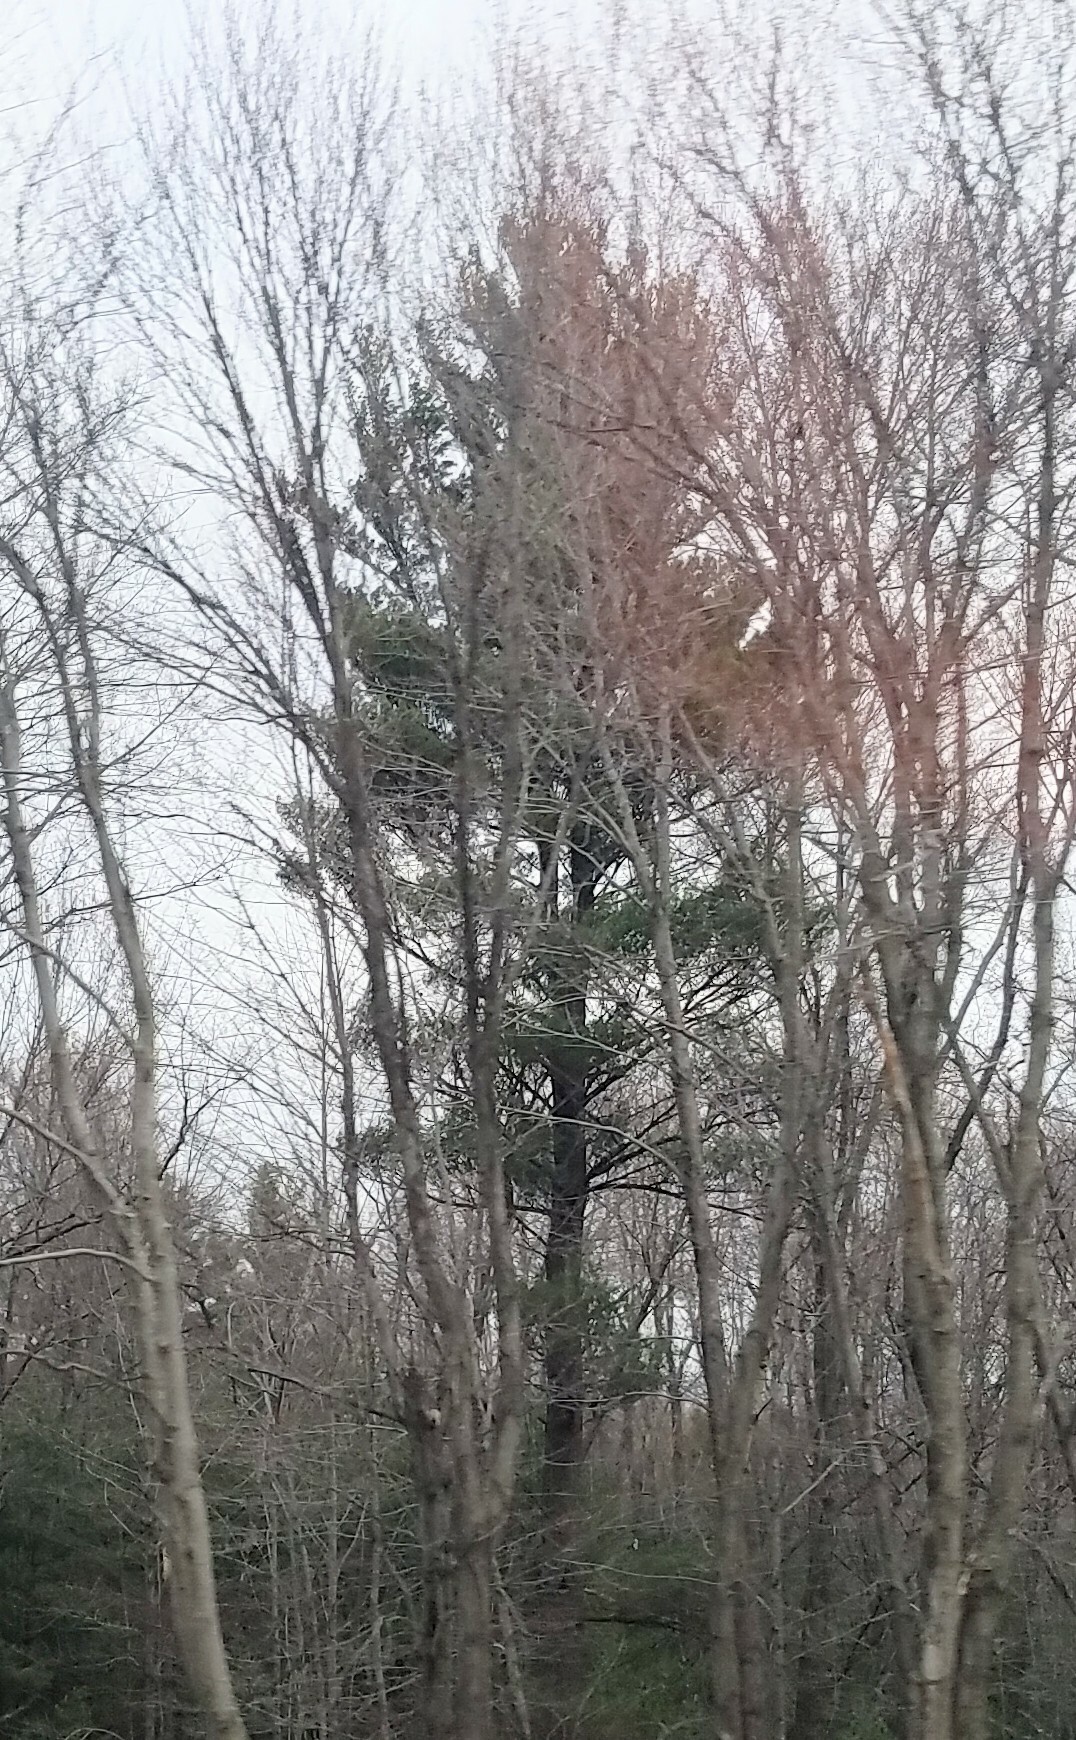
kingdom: Plantae
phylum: Tracheophyta
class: Pinopsida
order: Pinales
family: Pinaceae
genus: Pinus
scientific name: Pinus strobus
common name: Weymouth pine
